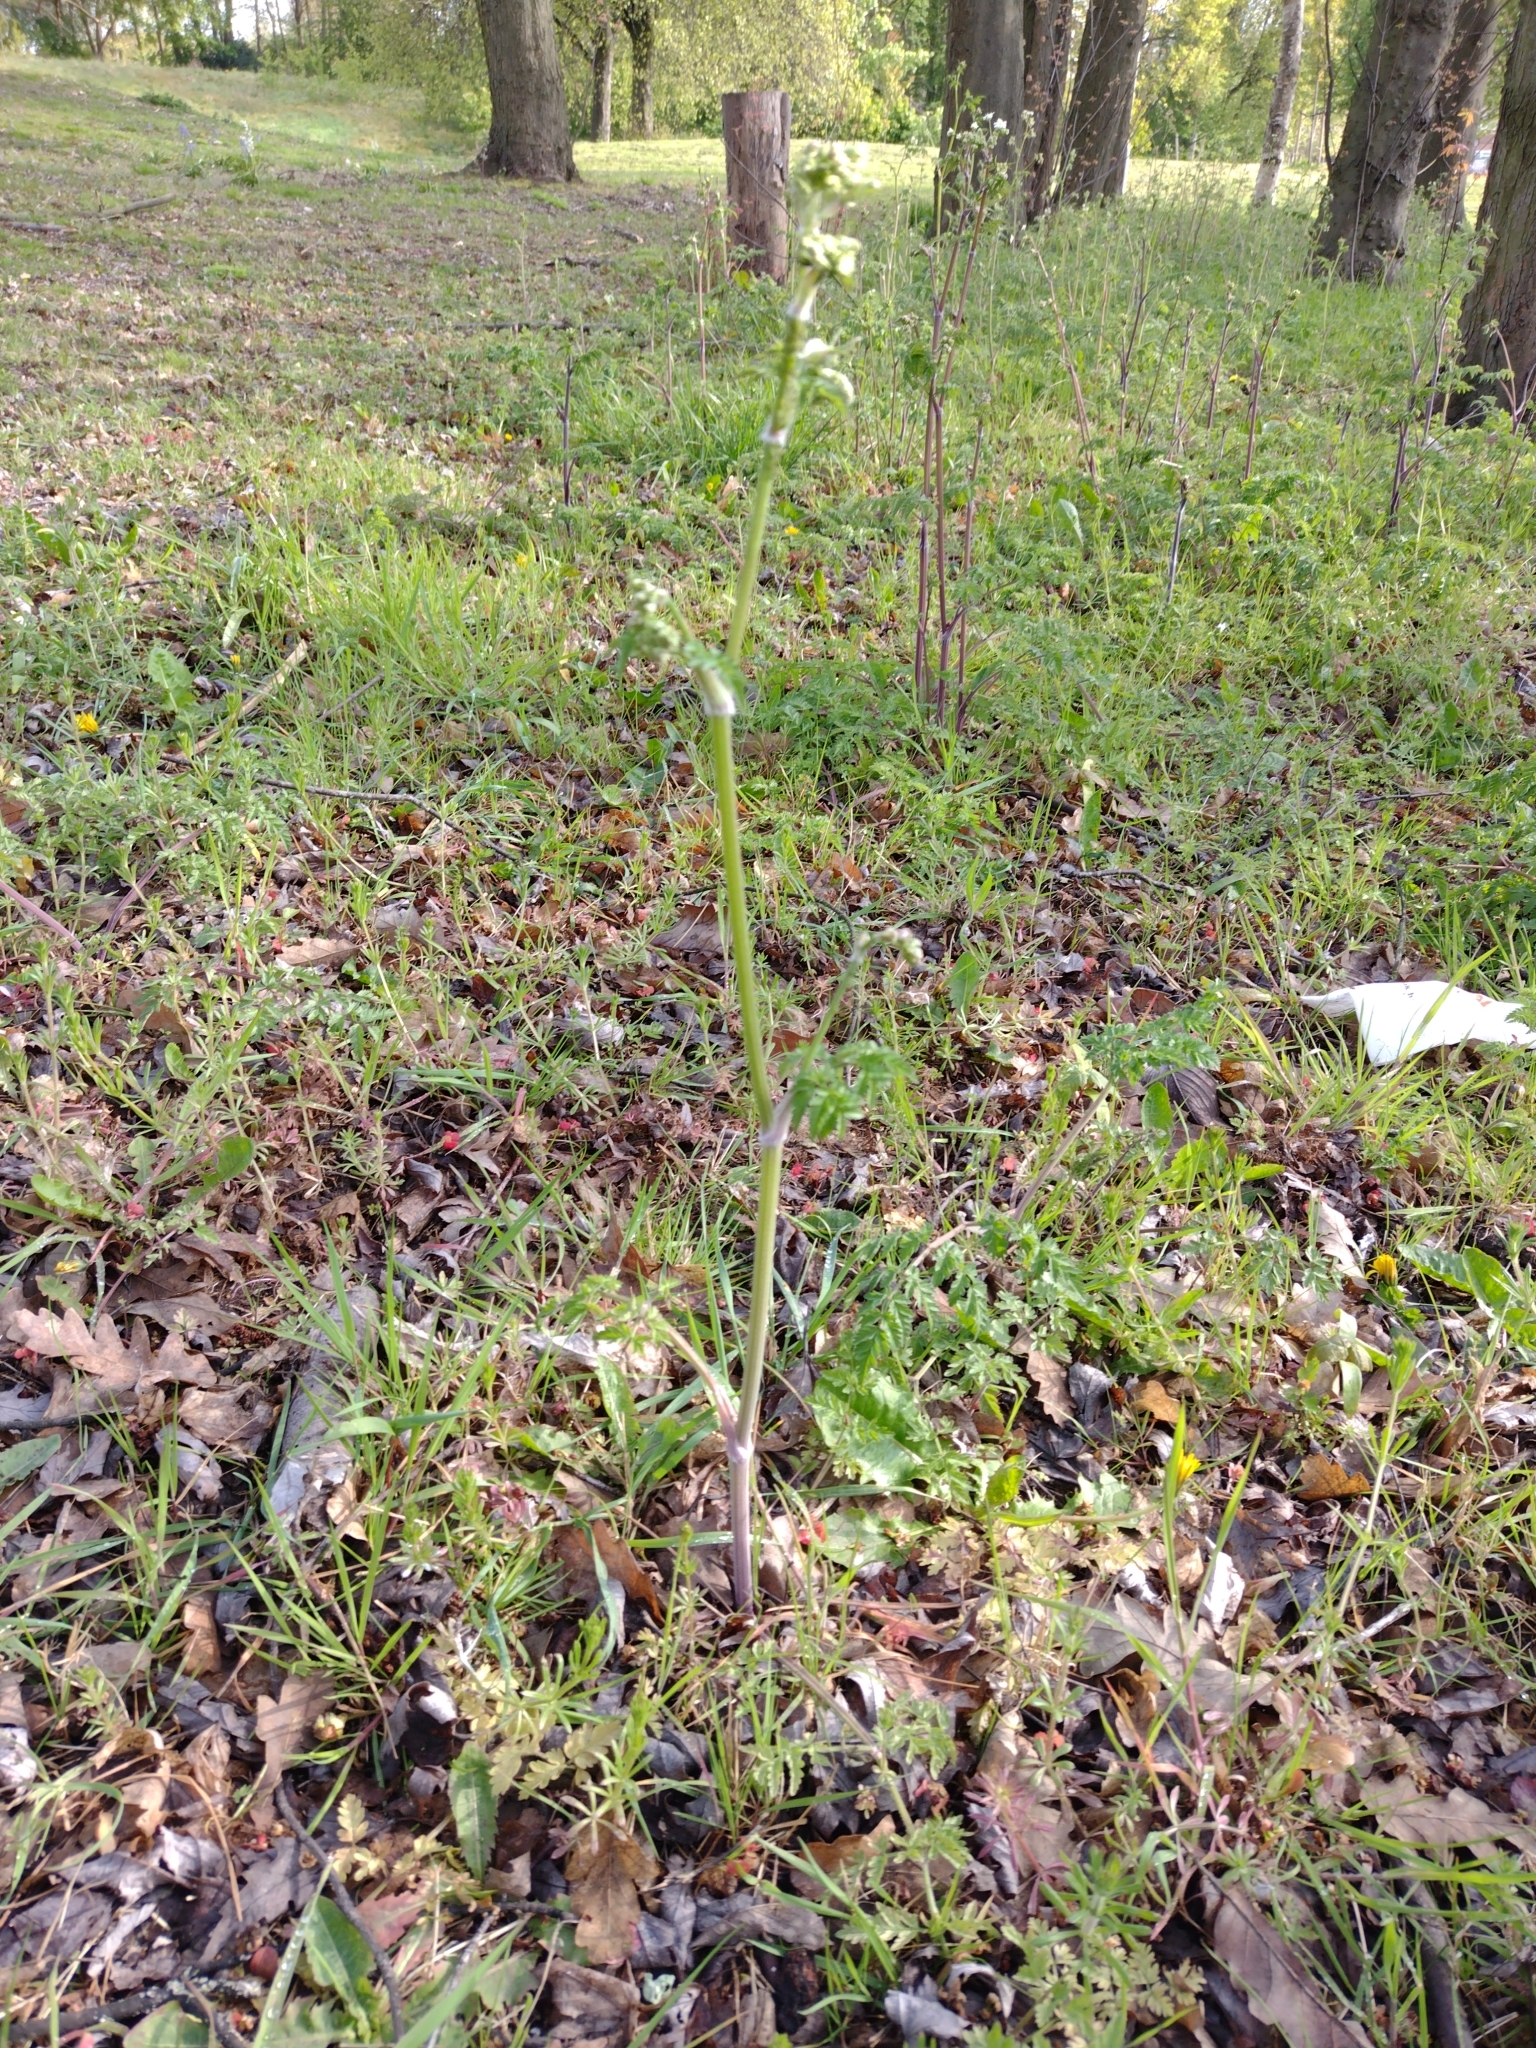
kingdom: Plantae
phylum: Tracheophyta
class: Magnoliopsida
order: Apiales
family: Apiaceae
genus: Anthriscus
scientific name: Anthriscus sylvestris
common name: Cow parsley
